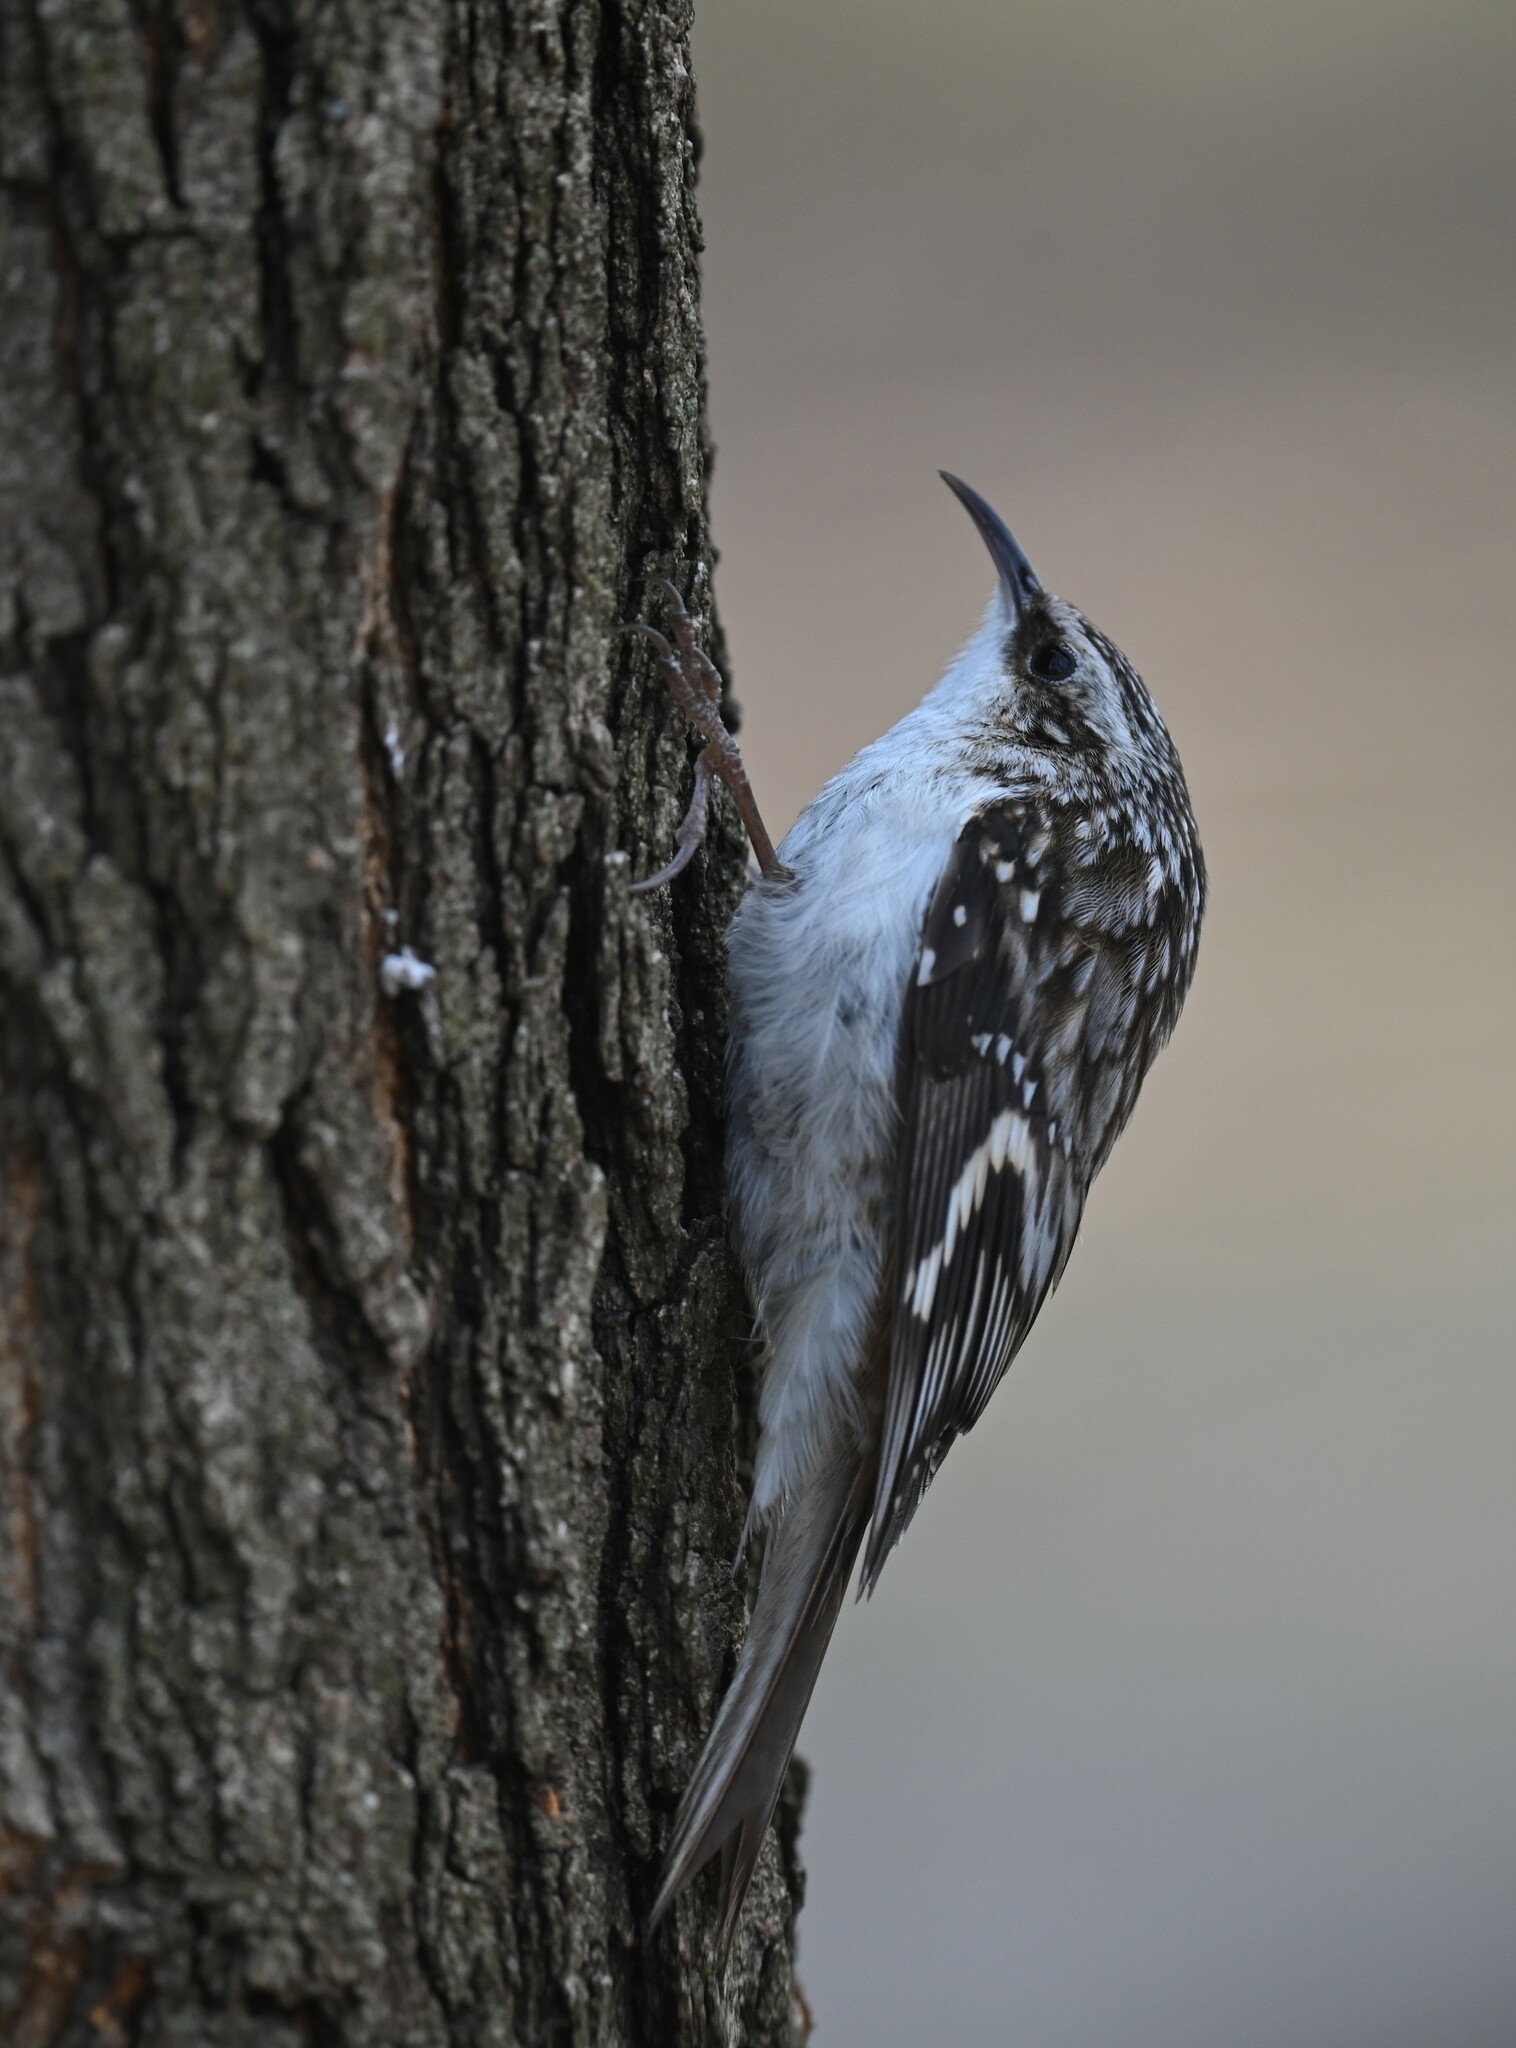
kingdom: Animalia
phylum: Chordata
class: Aves
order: Passeriformes
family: Certhiidae
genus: Certhia
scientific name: Certhia americana
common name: Brown creeper
